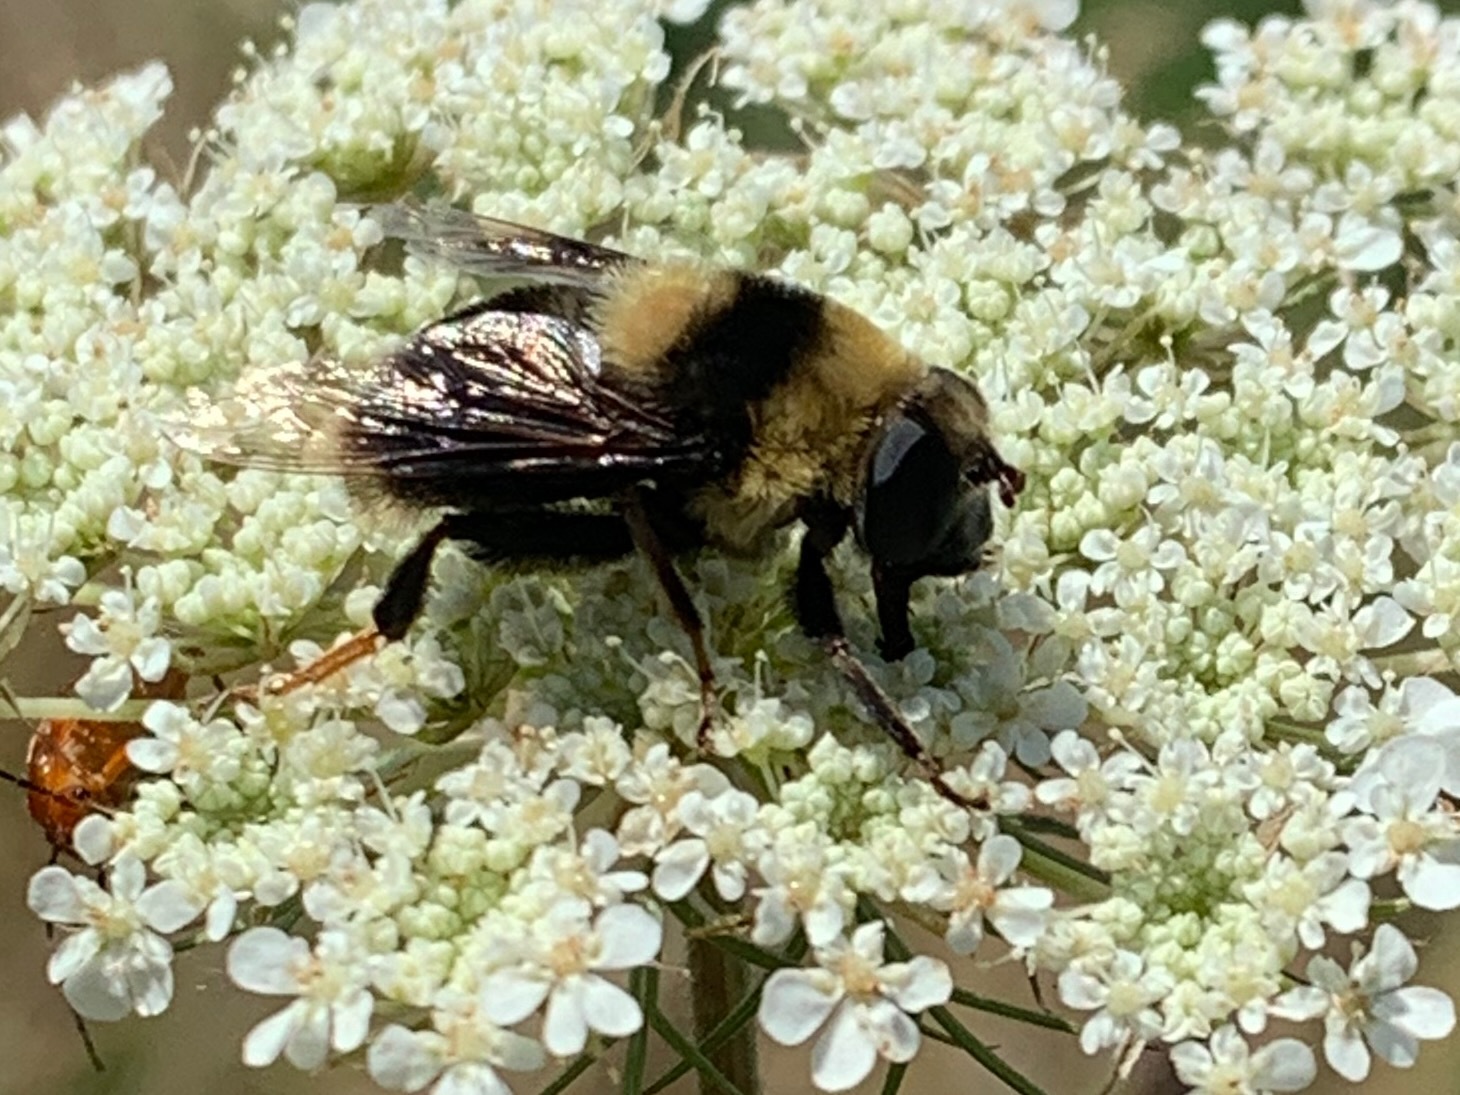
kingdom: Animalia
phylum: Arthropoda
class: Insecta
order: Diptera
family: Syrphidae
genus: Eristalis
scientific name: Eristalis flavipes
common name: Orange-legged drone fly
